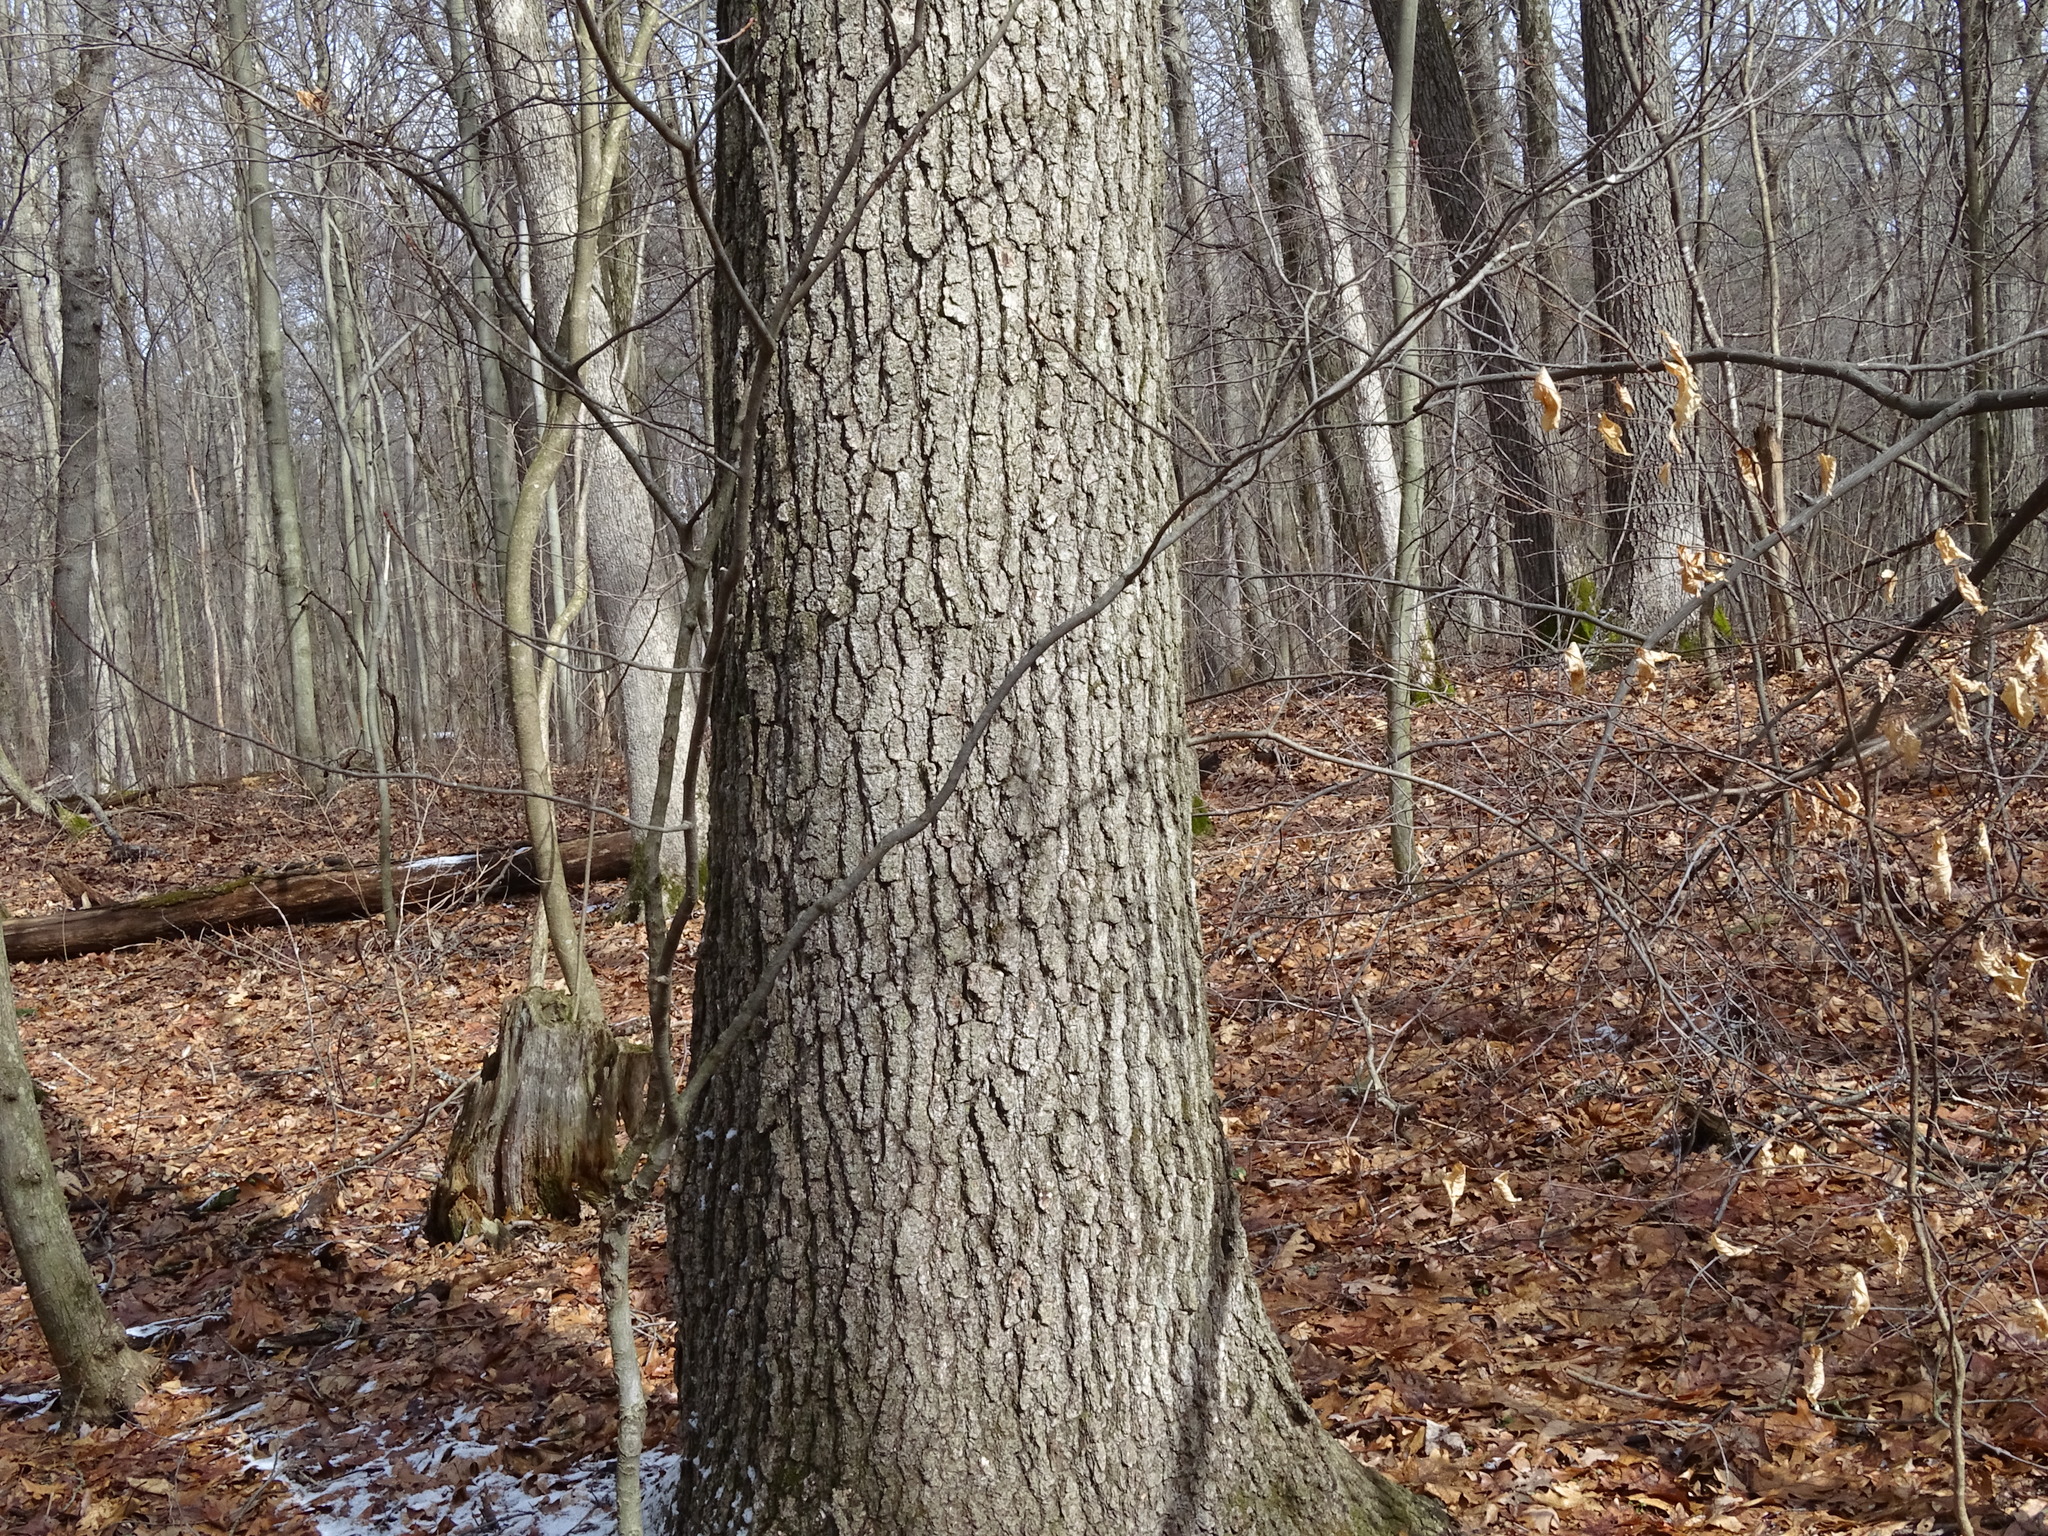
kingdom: Plantae
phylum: Tracheophyta
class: Magnoliopsida
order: Fagales
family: Fagaceae
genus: Quercus
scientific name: Quercus velutina
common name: Black oak
